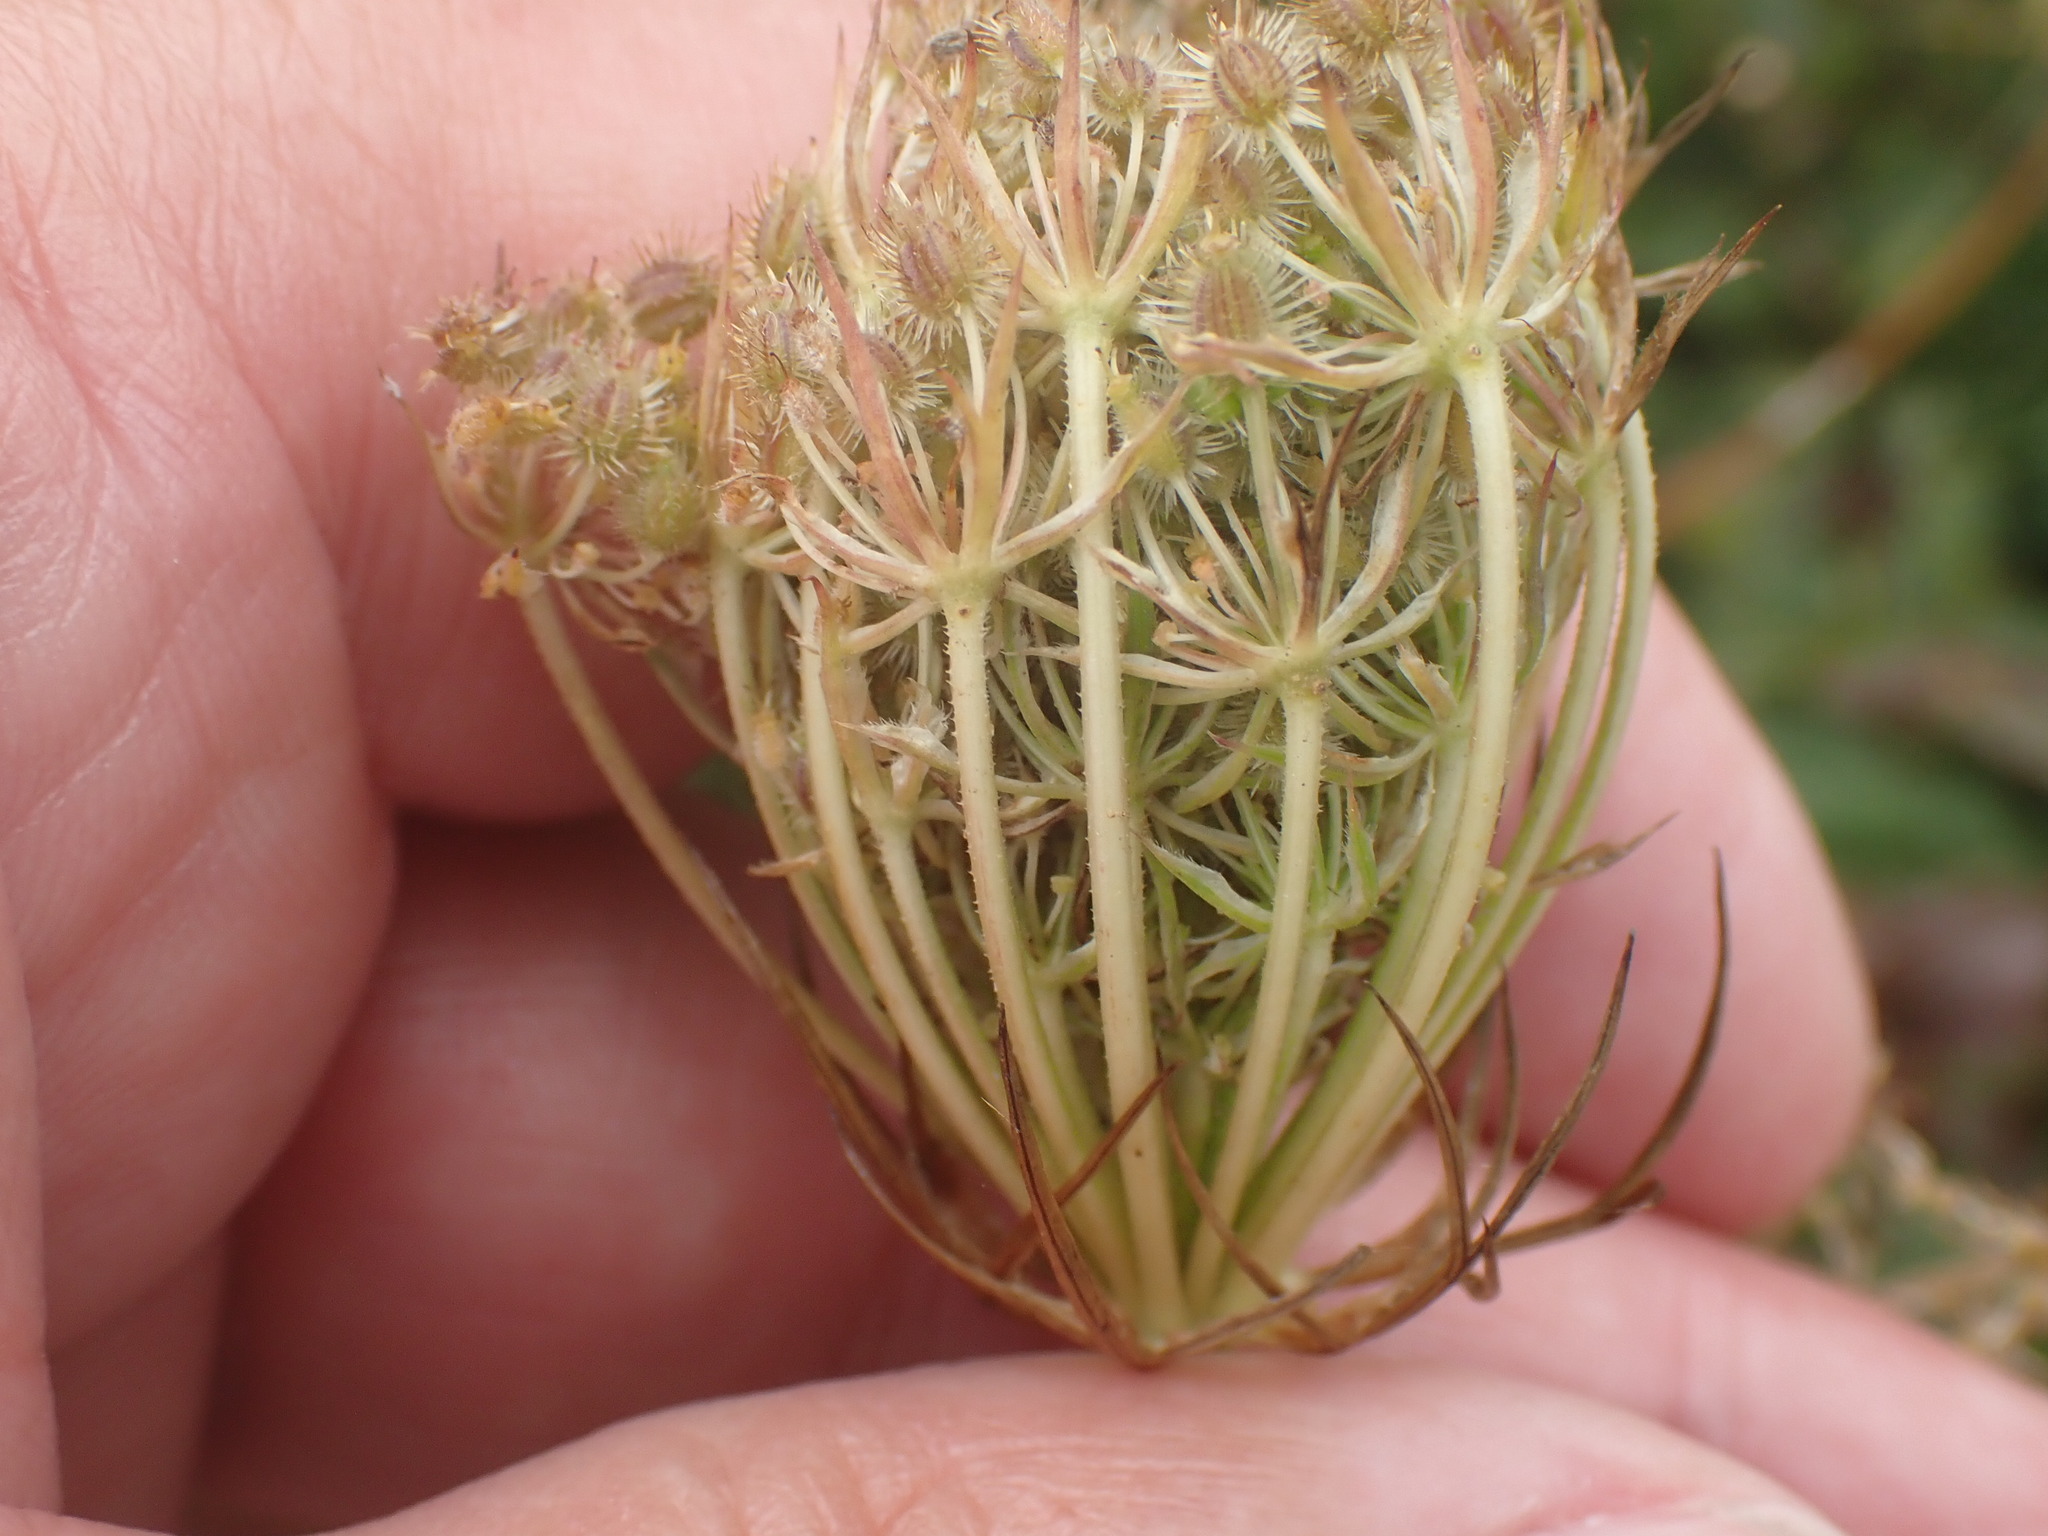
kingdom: Plantae
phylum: Tracheophyta
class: Magnoliopsida
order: Apiales
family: Apiaceae
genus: Daucus
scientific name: Daucus carota
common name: Wild carrot
